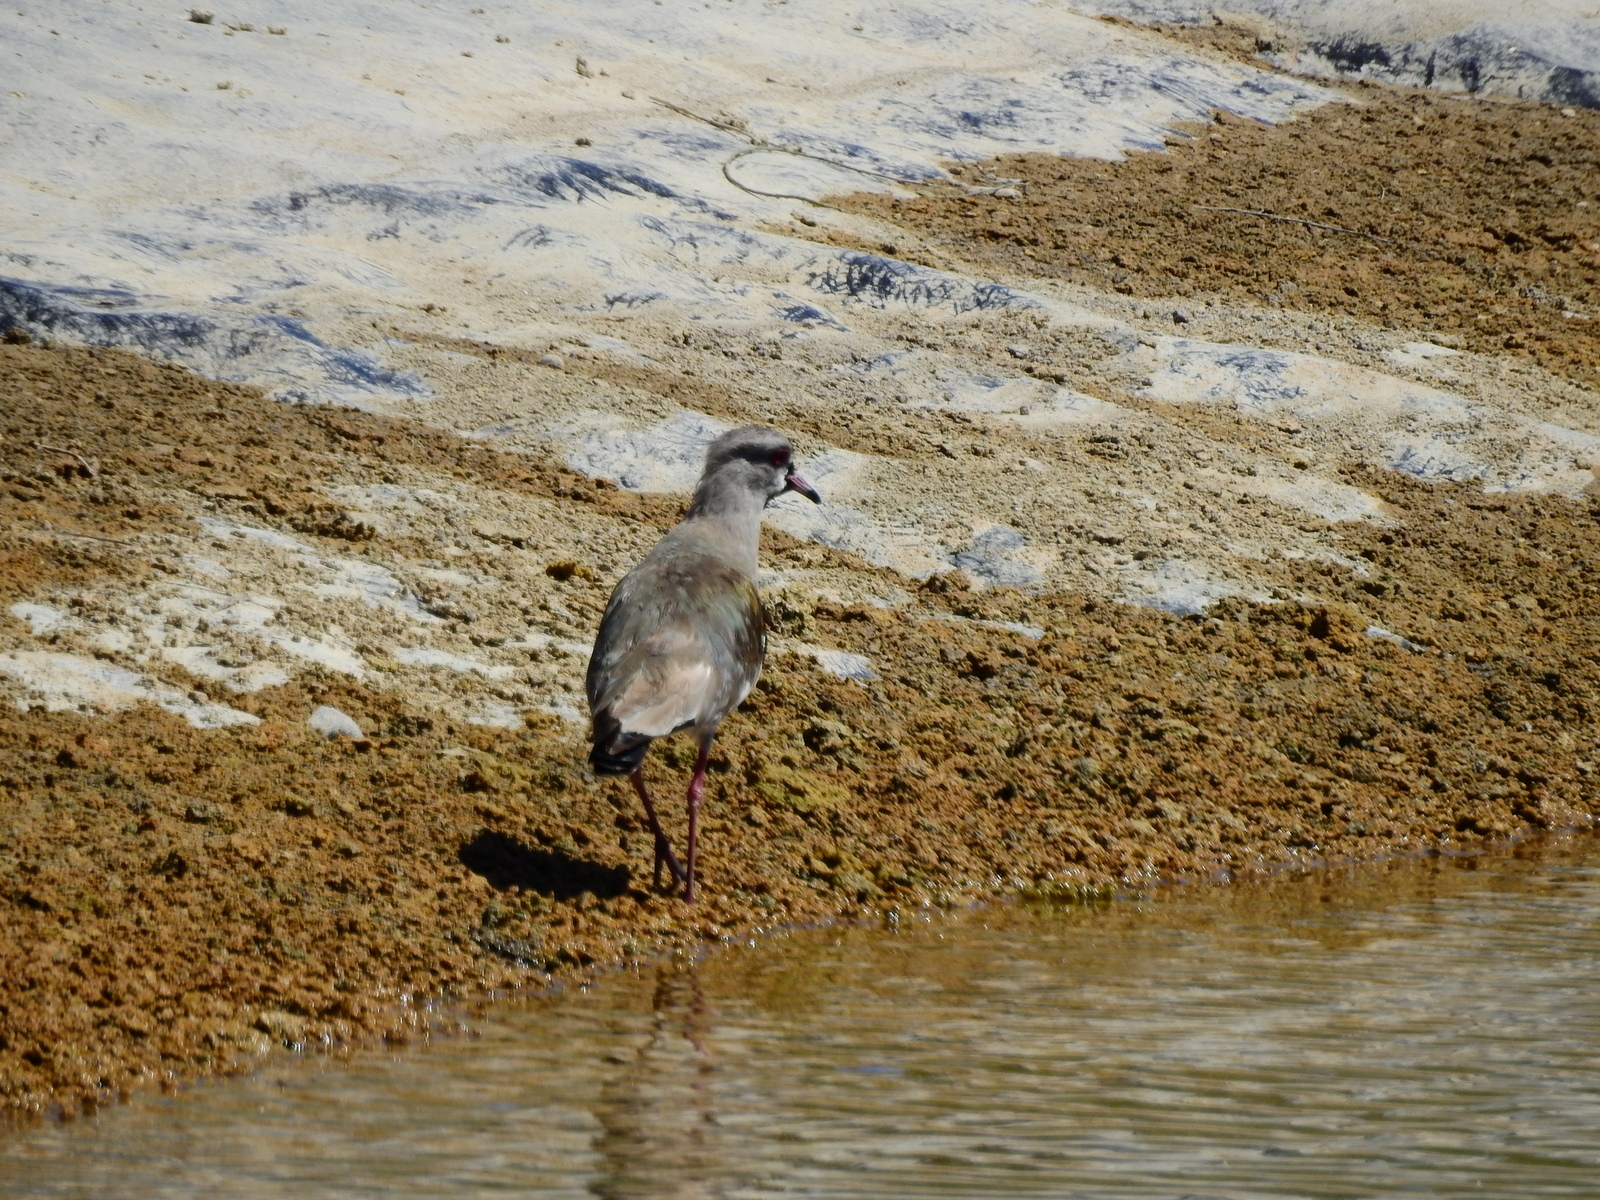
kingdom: Animalia
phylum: Chordata
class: Aves
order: Charadriiformes
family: Charadriidae
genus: Vanellus
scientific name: Vanellus chilensis
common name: Southern lapwing
